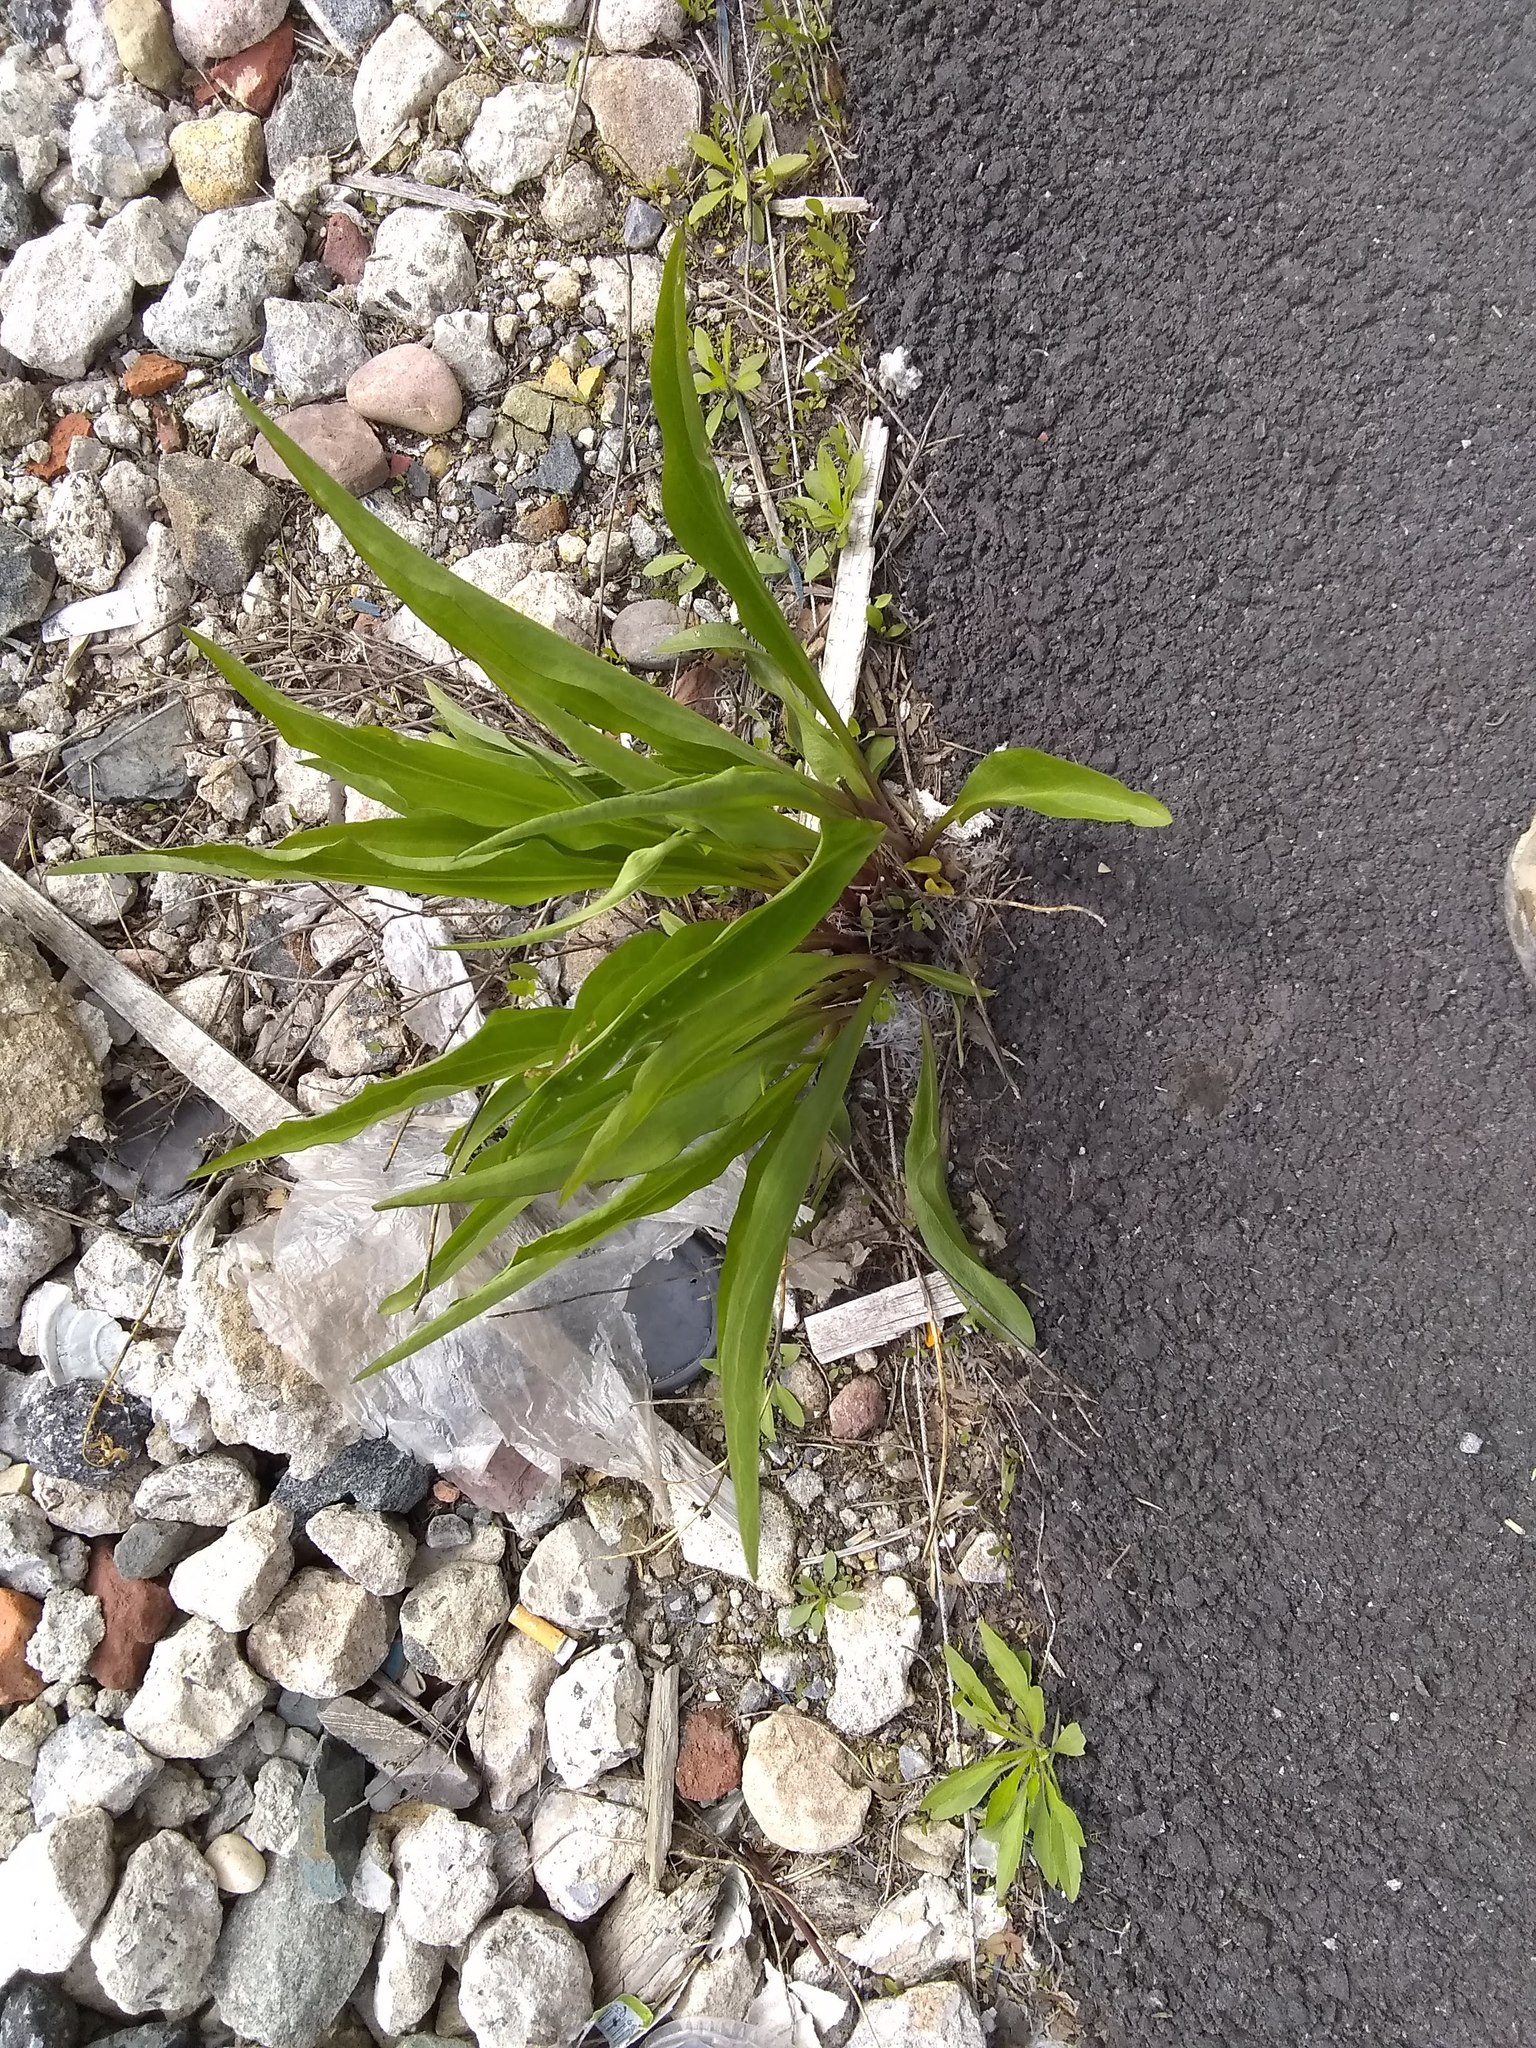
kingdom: Plantae
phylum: Tracheophyta
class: Magnoliopsida
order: Asterales
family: Asteraceae
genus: Solidago
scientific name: Solidago sempervirens
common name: Salt-marsh goldenrod
